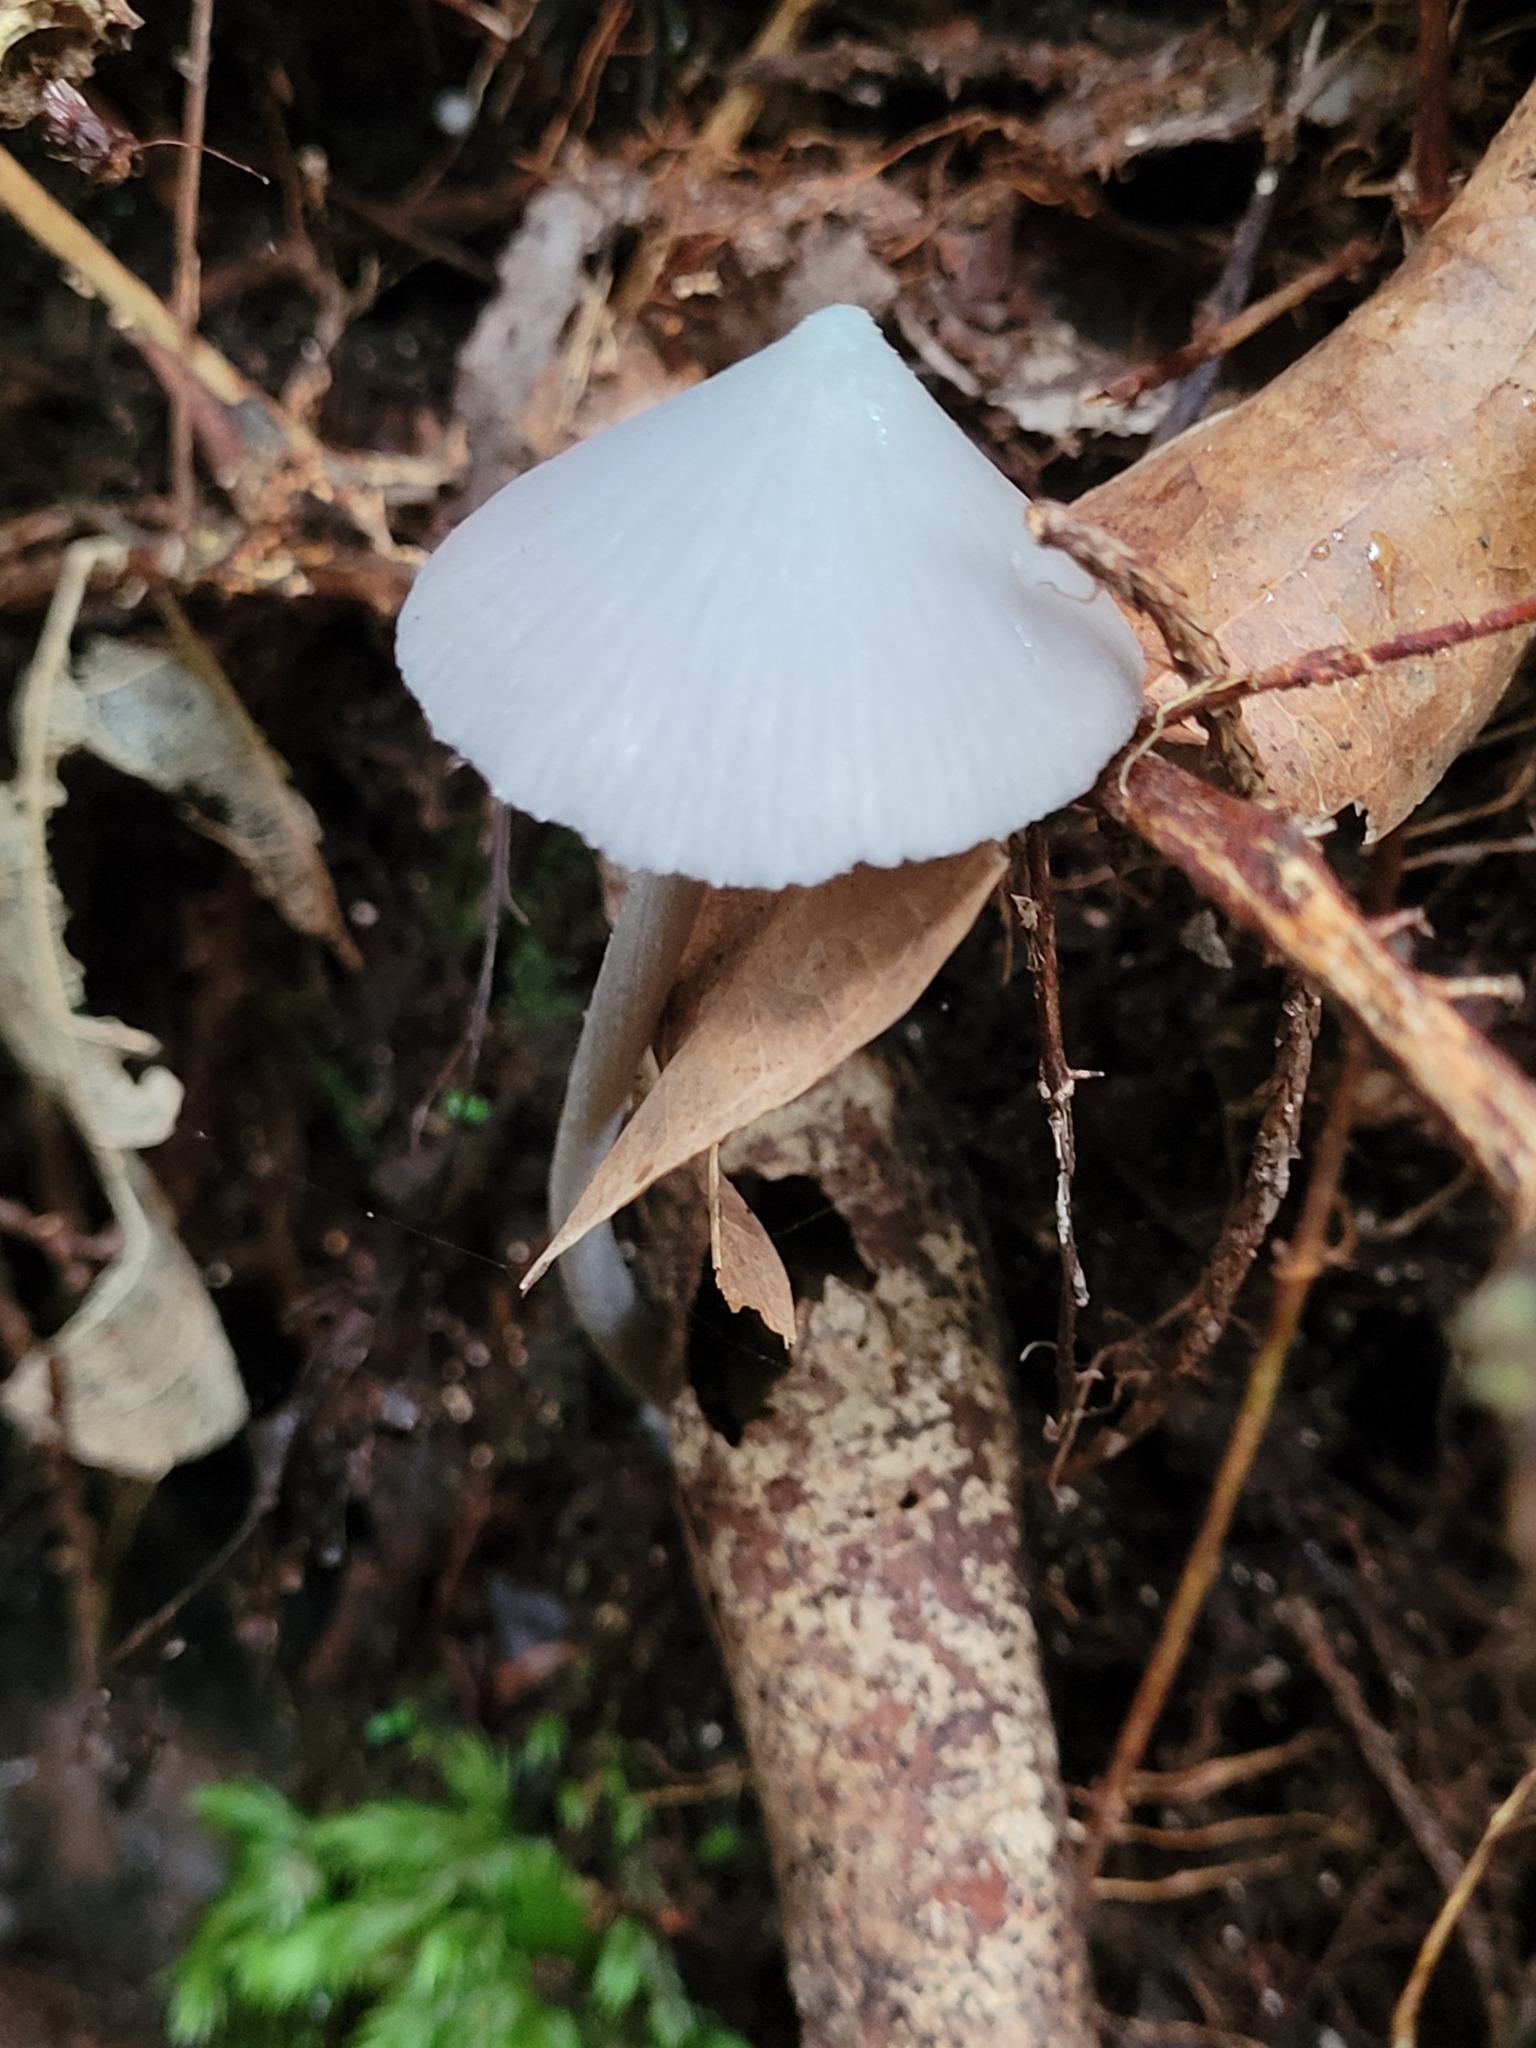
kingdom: Fungi
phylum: Basidiomycota
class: Agaricomycetes
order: Agaricales
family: Entolomataceae
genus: Entoloma
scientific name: Entoloma hochstetteri
